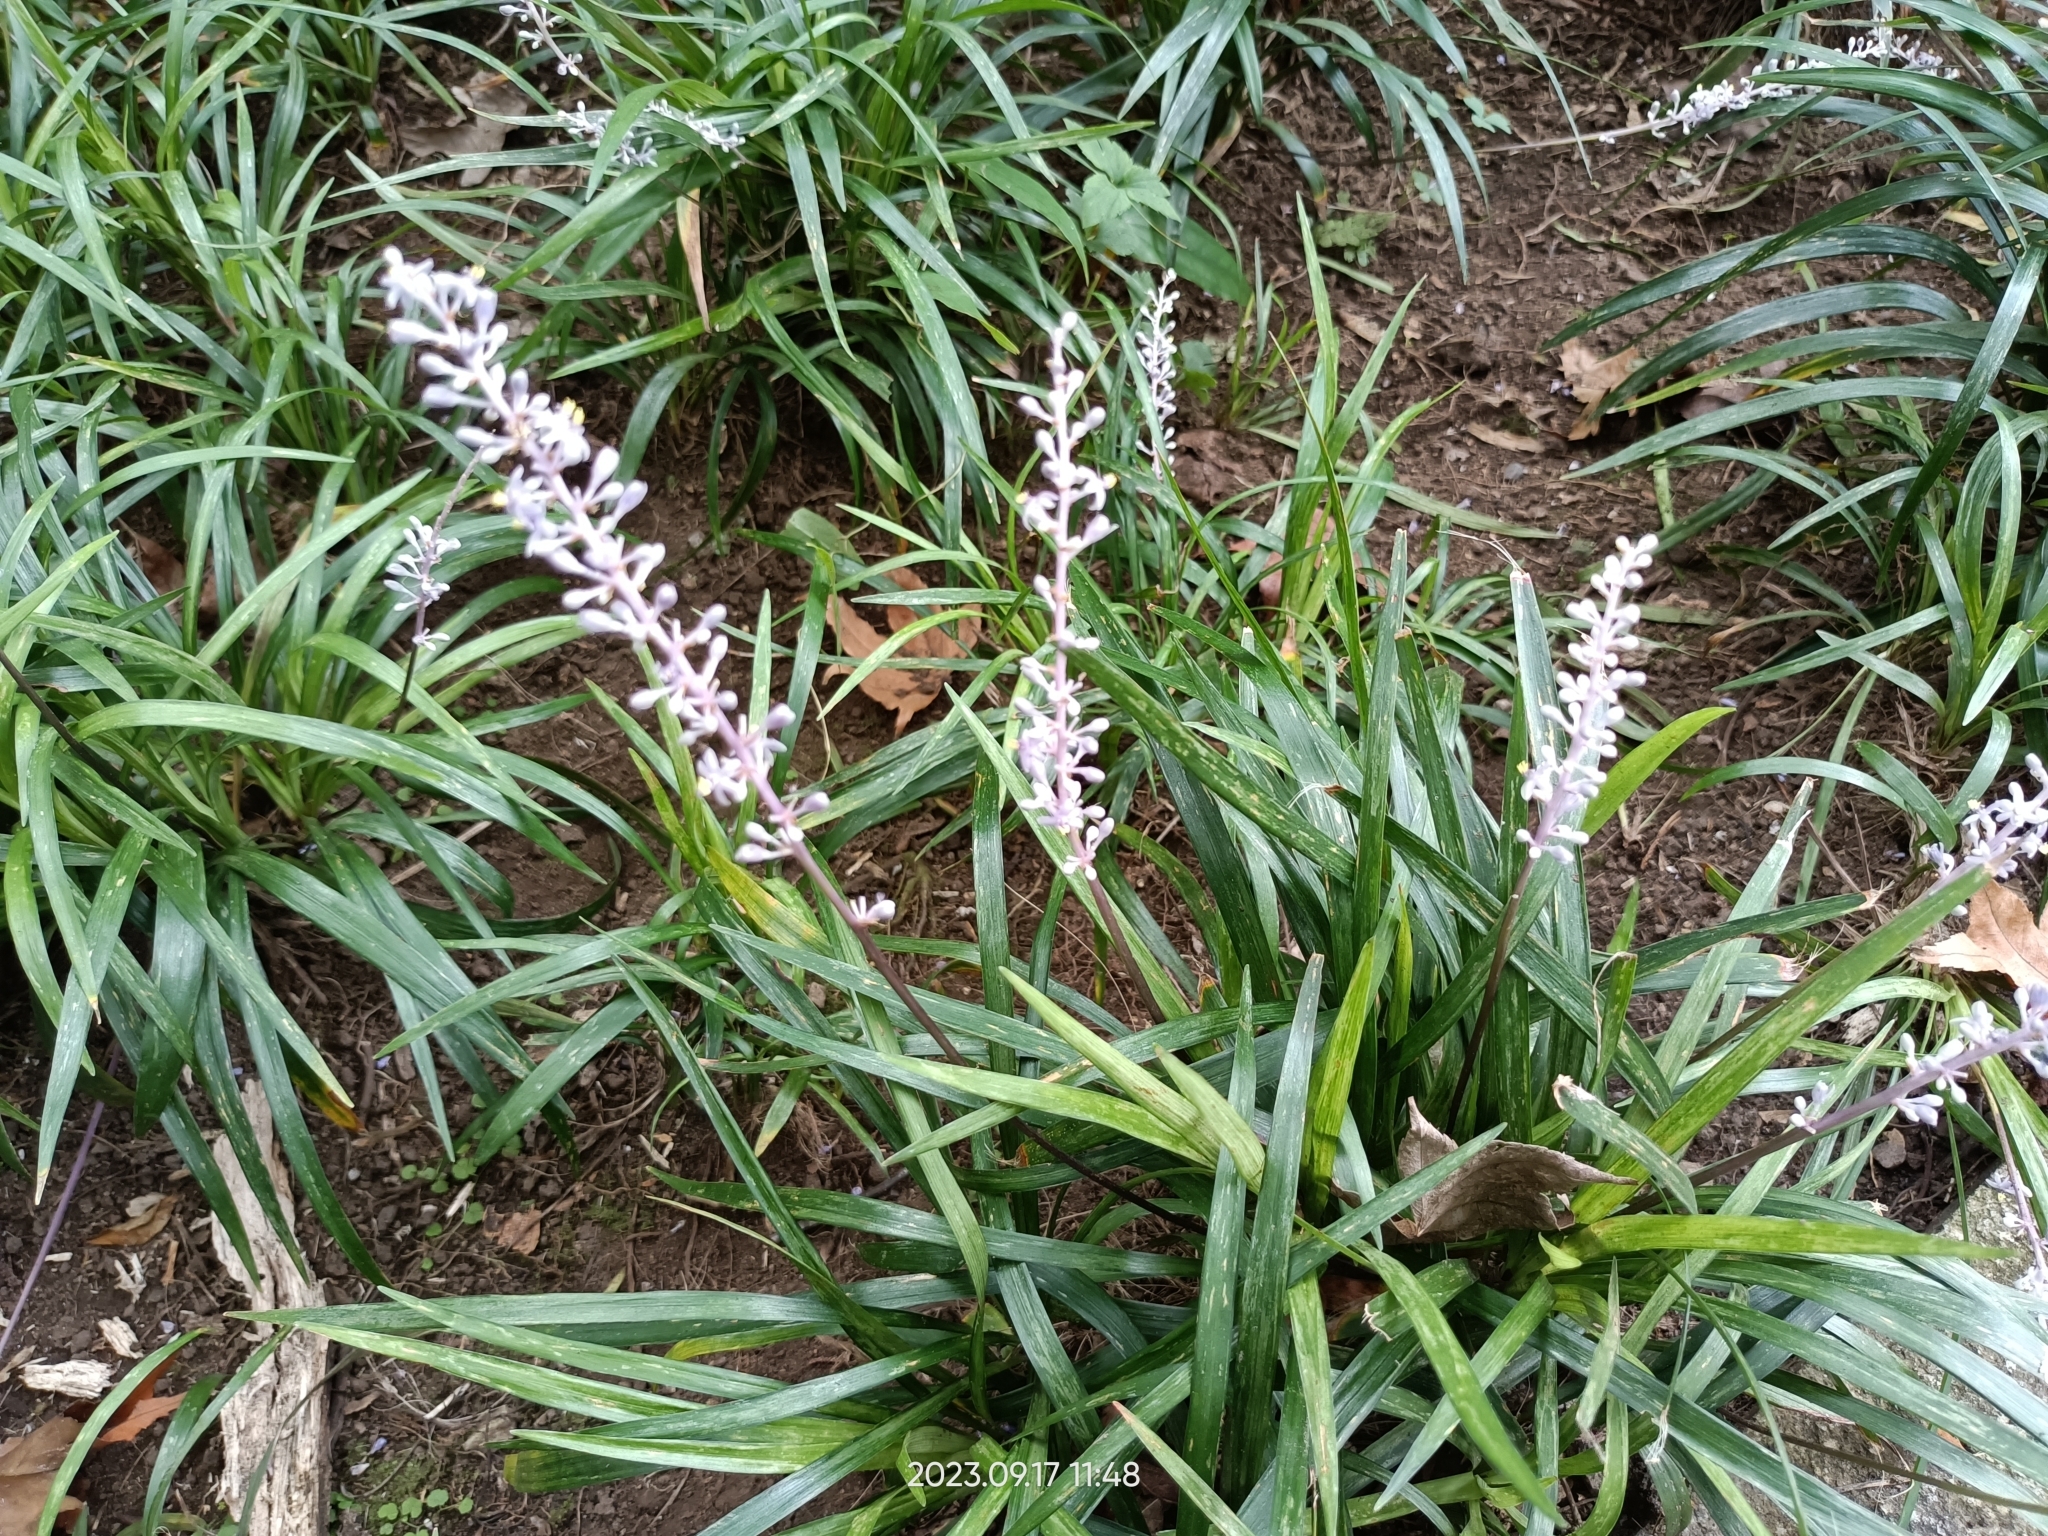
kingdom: Plantae
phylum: Tracheophyta
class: Liliopsida
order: Asparagales
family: Asparagaceae
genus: Liriope
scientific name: Liriope muscari
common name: Big blue lilyturf
